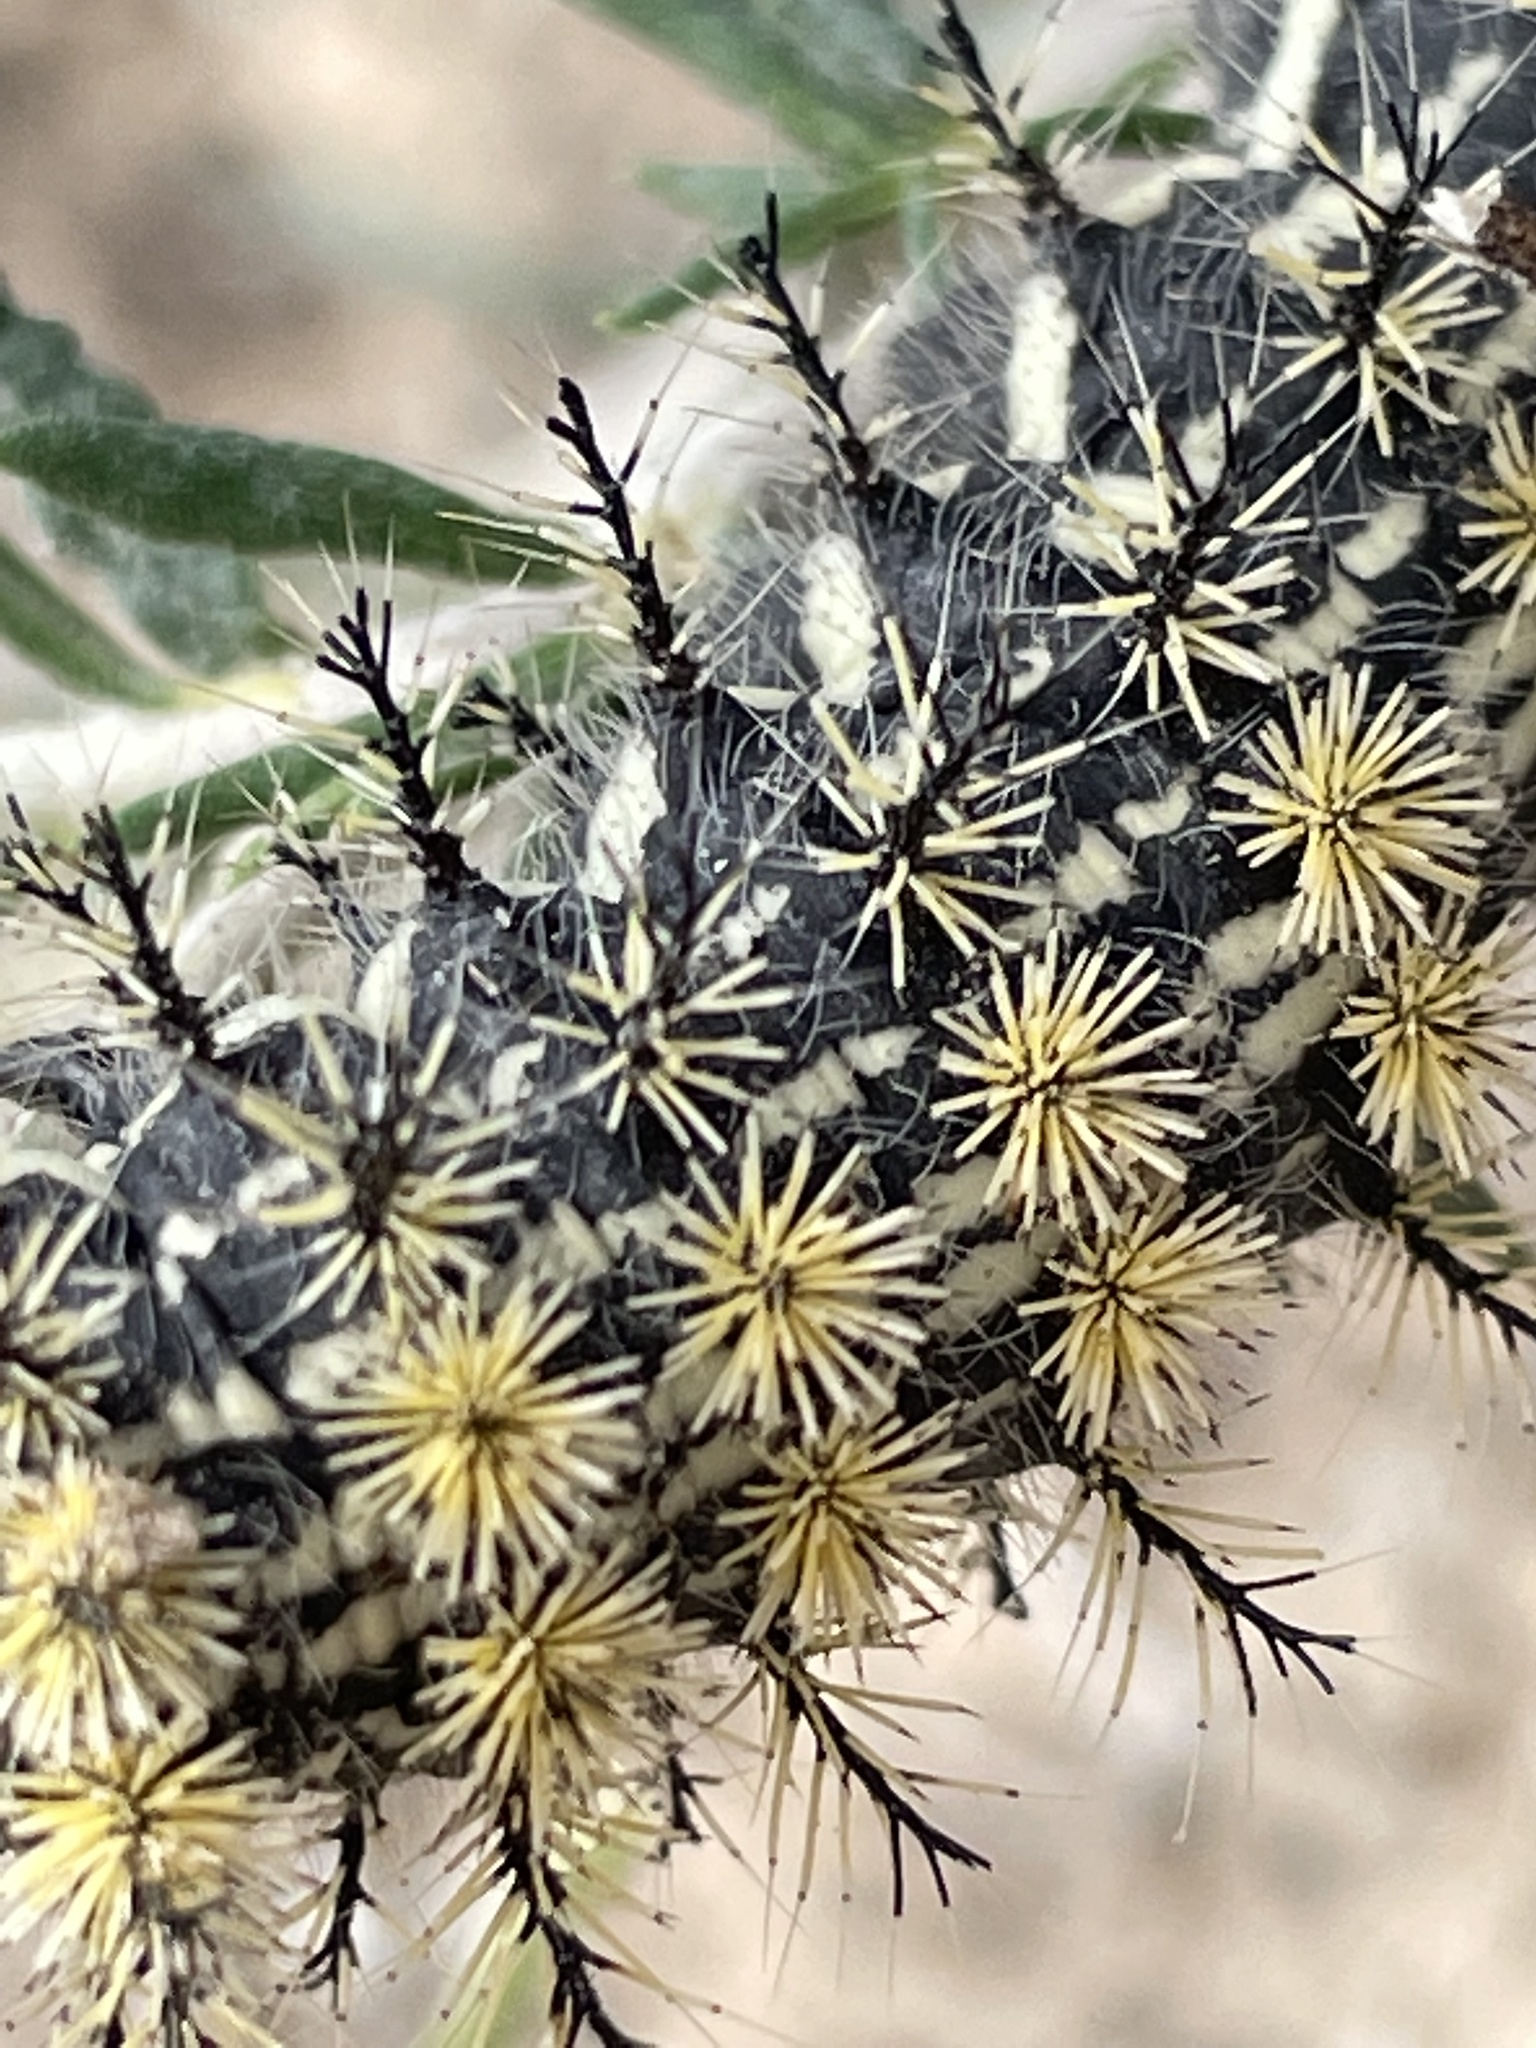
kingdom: Animalia
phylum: Arthropoda
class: Insecta
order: Lepidoptera
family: Saturniidae
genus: Hemileuca
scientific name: Hemileuca hera
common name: Hera sheepmoth
